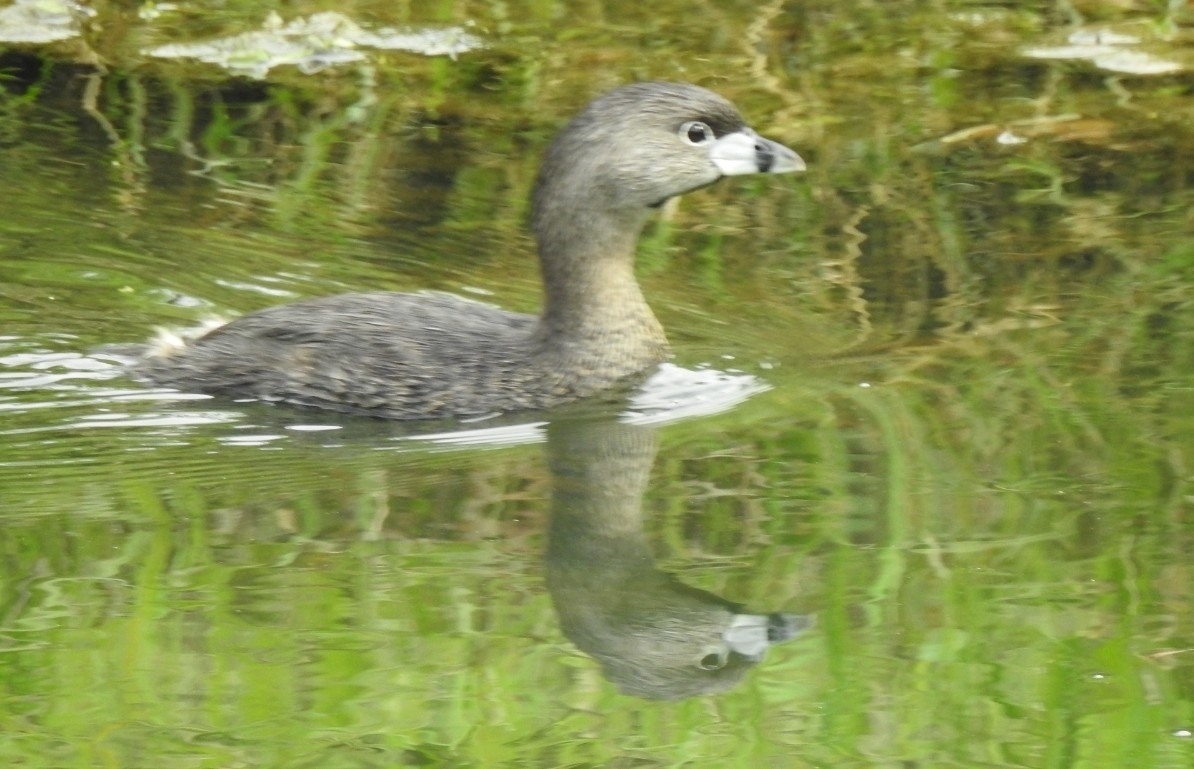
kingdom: Animalia
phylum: Chordata
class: Aves
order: Podicipediformes
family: Podicipedidae
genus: Podilymbus
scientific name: Podilymbus podiceps
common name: Pied-billed grebe
